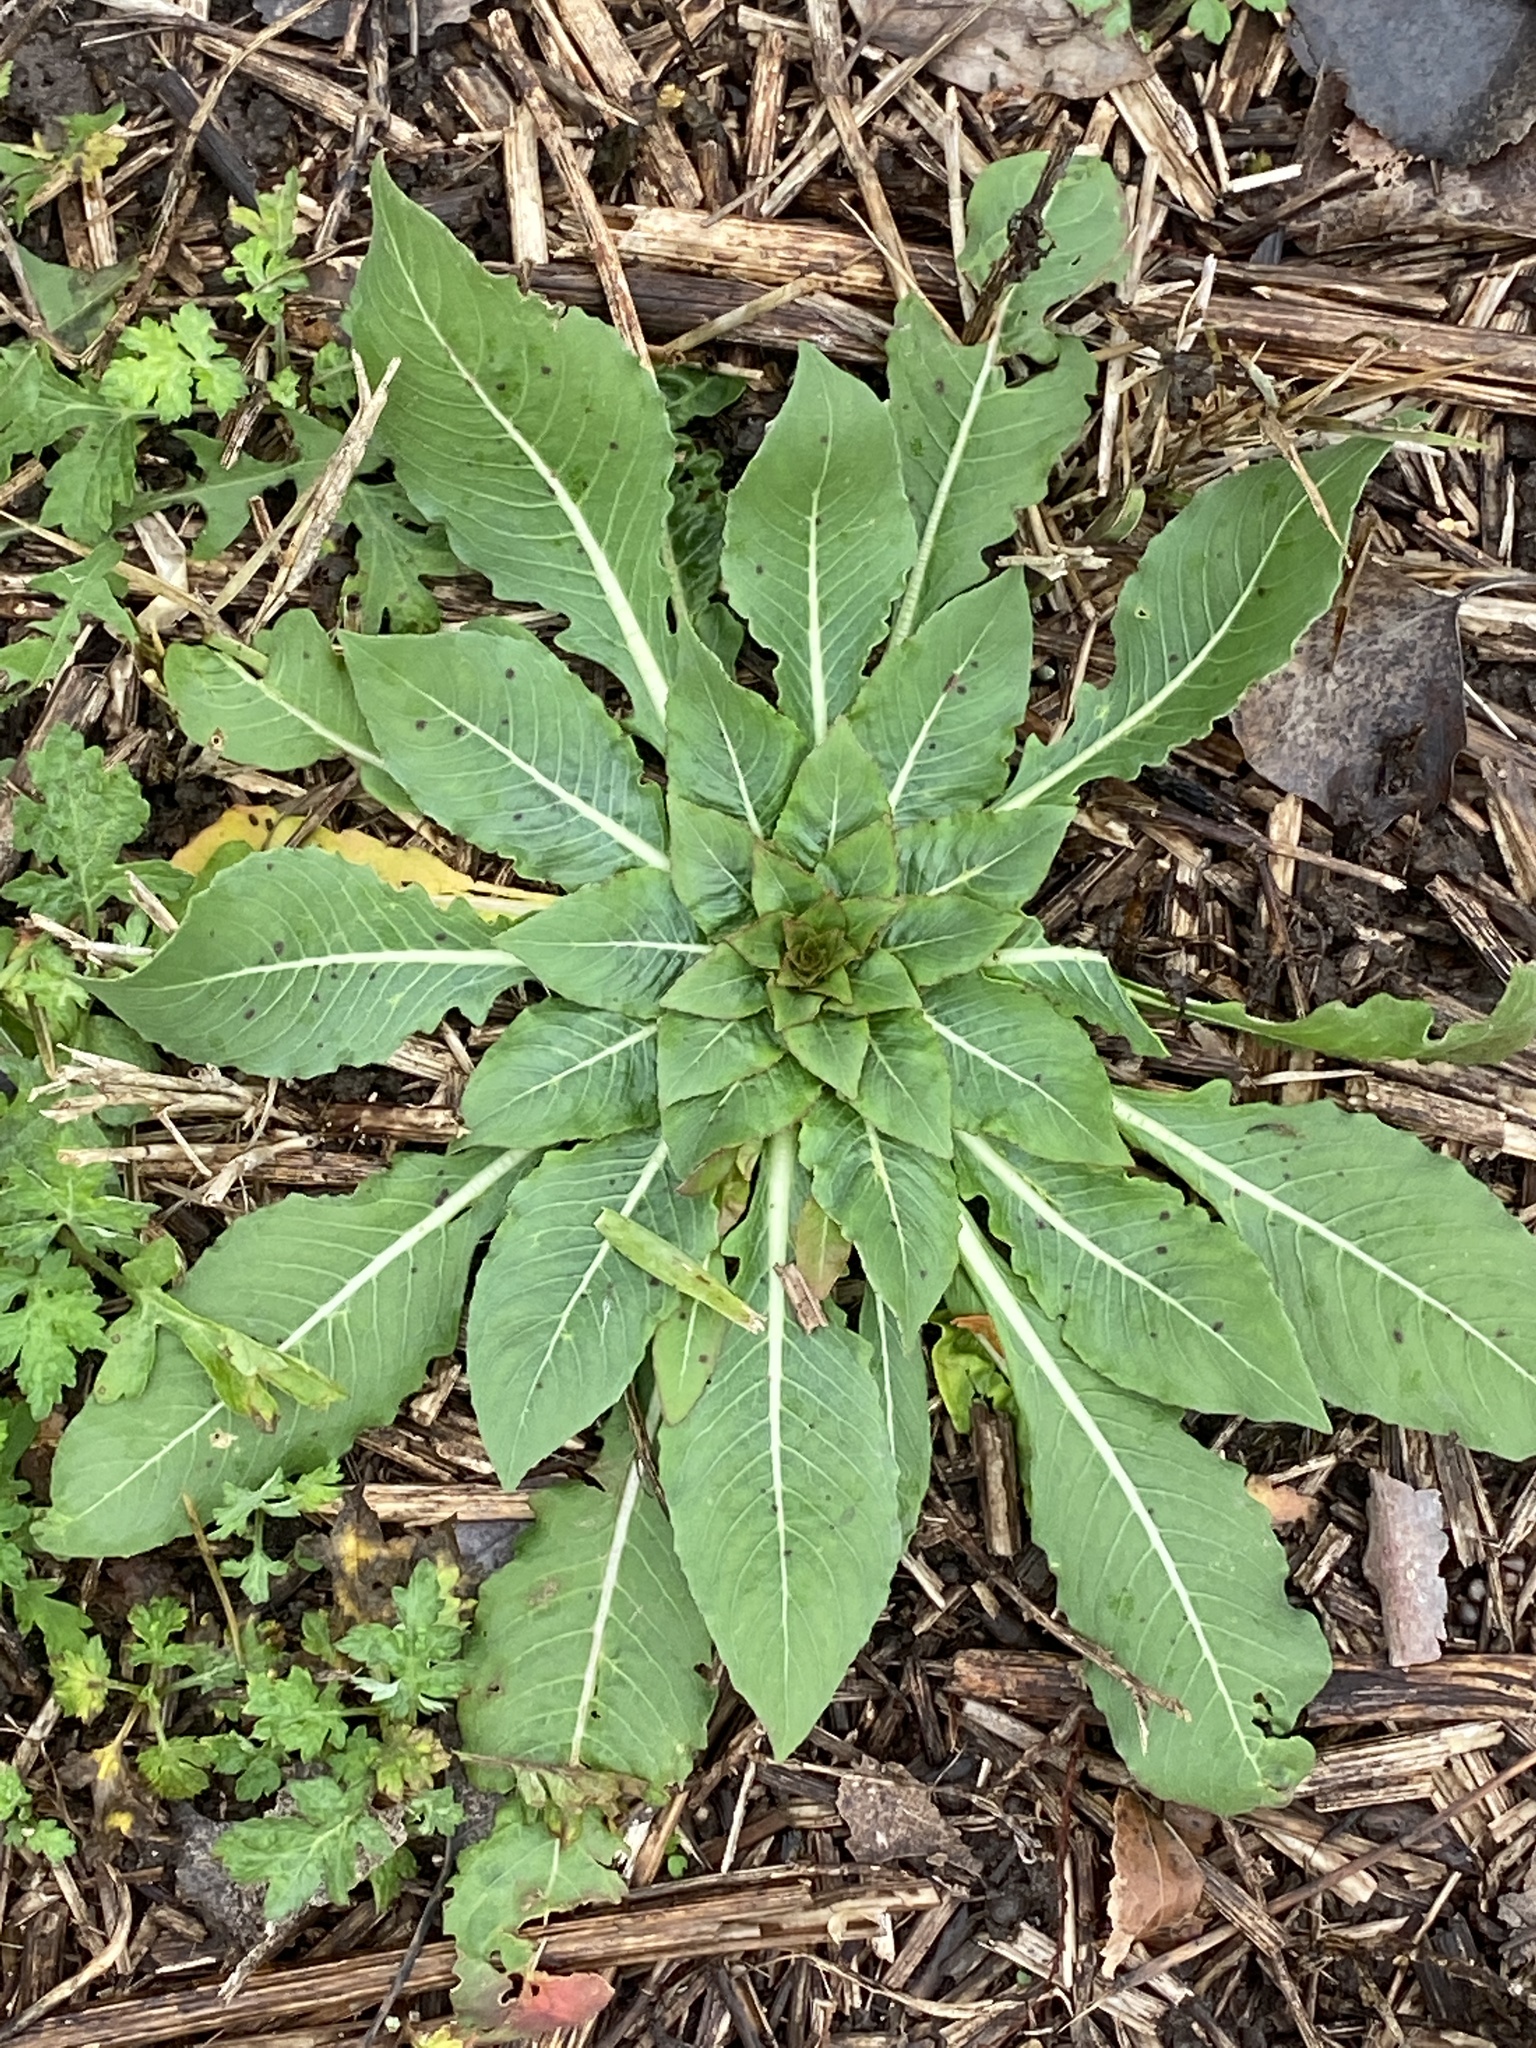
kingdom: Plantae
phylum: Tracheophyta
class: Magnoliopsida
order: Myrtales
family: Onagraceae
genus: Oenothera
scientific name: Oenothera biennis
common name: Common evening-primrose
